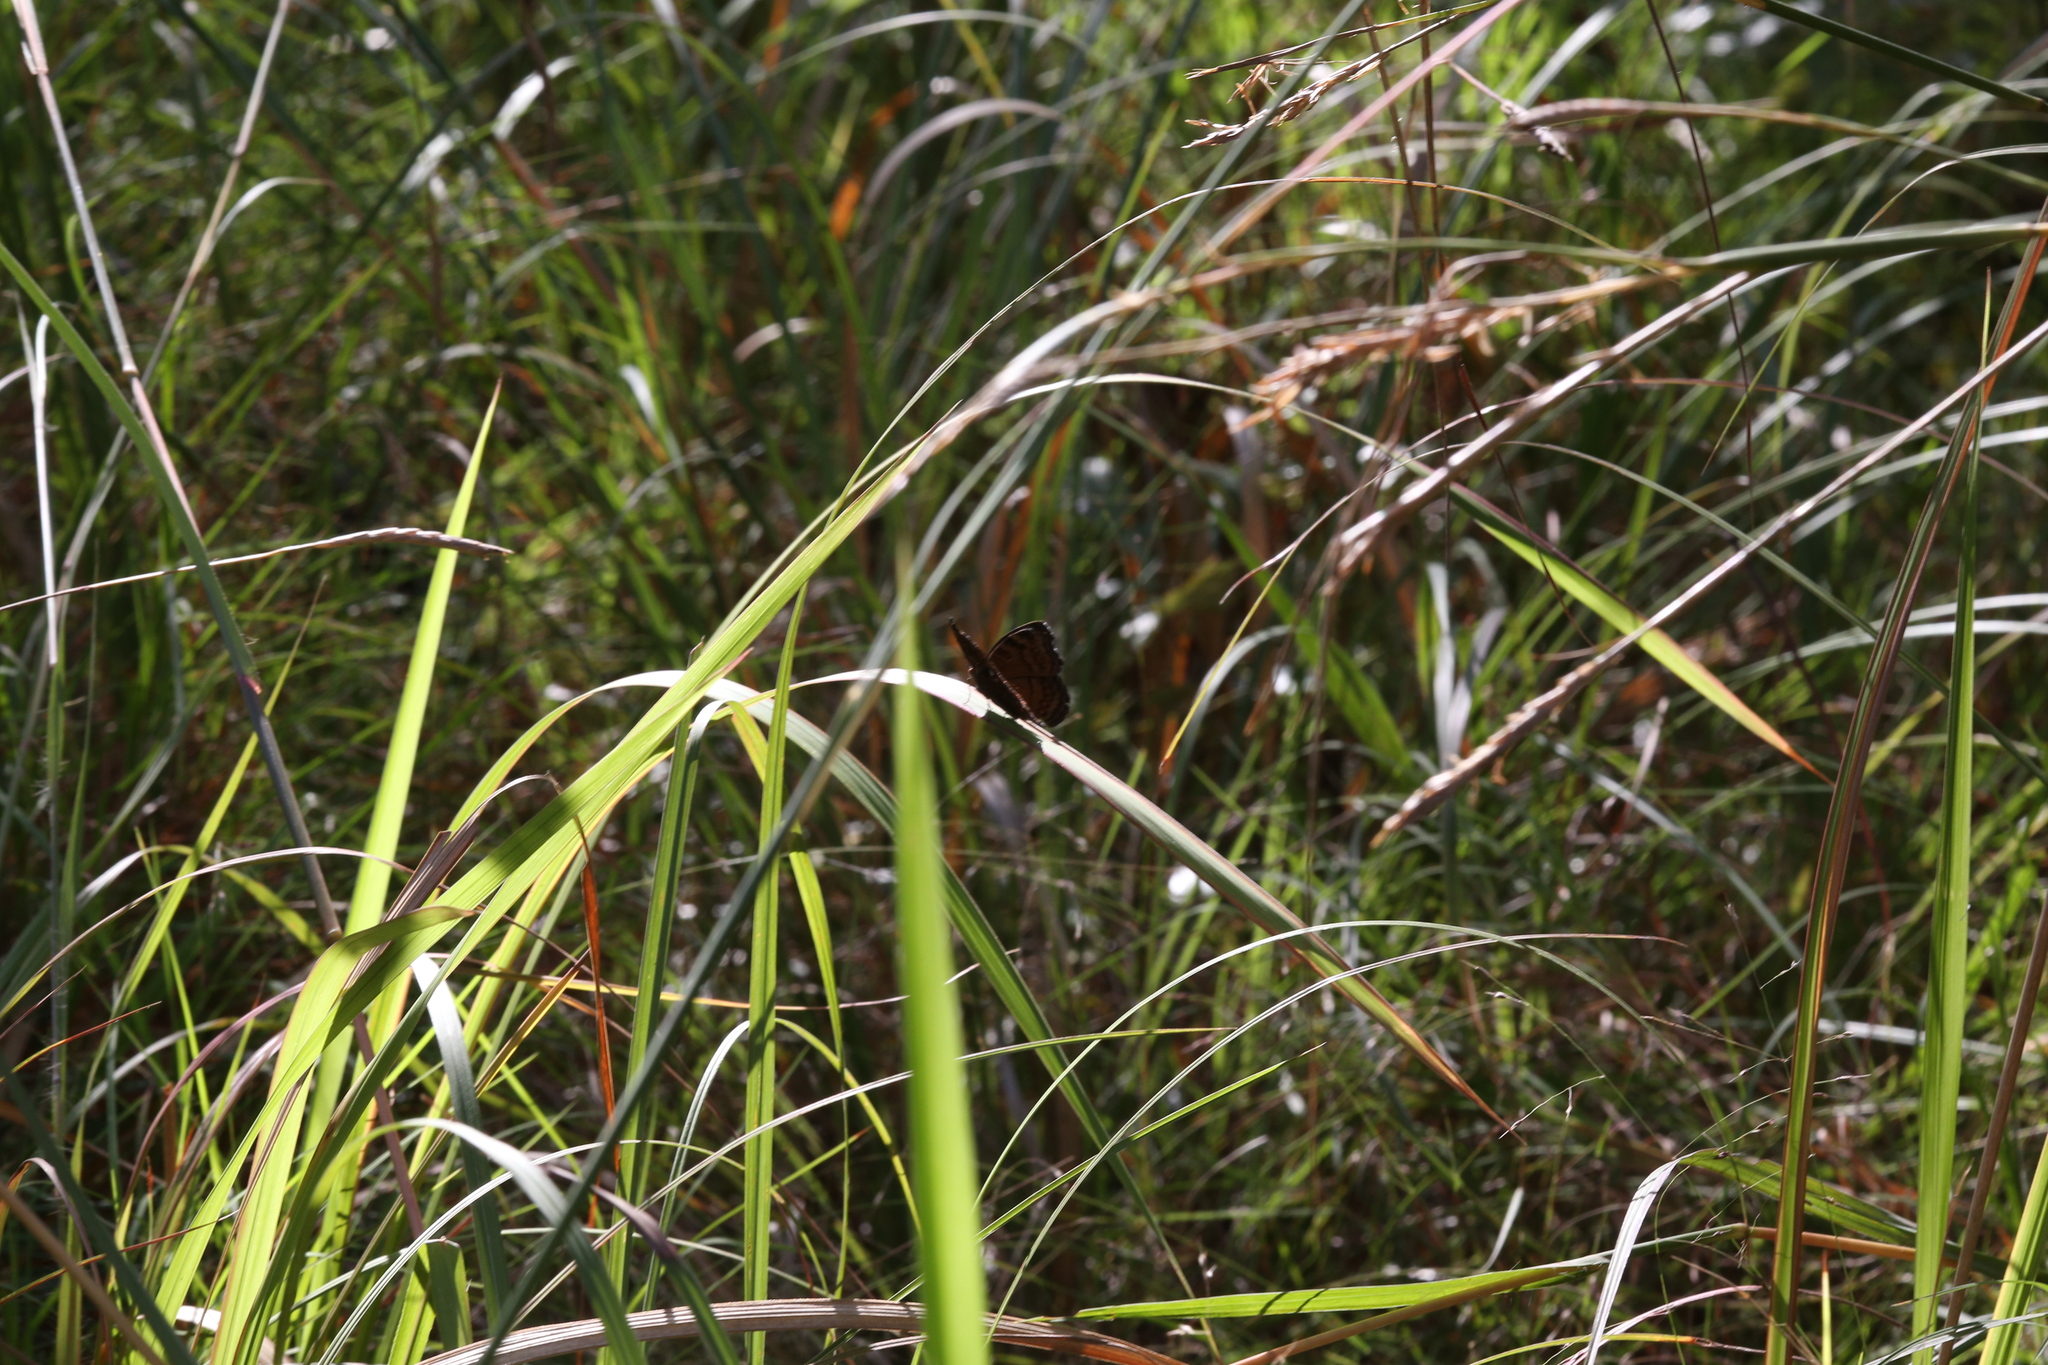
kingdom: Animalia
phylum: Arthropoda
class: Insecta
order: Lepidoptera
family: Nymphalidae
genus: Junonia
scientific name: Junonia hedonia
